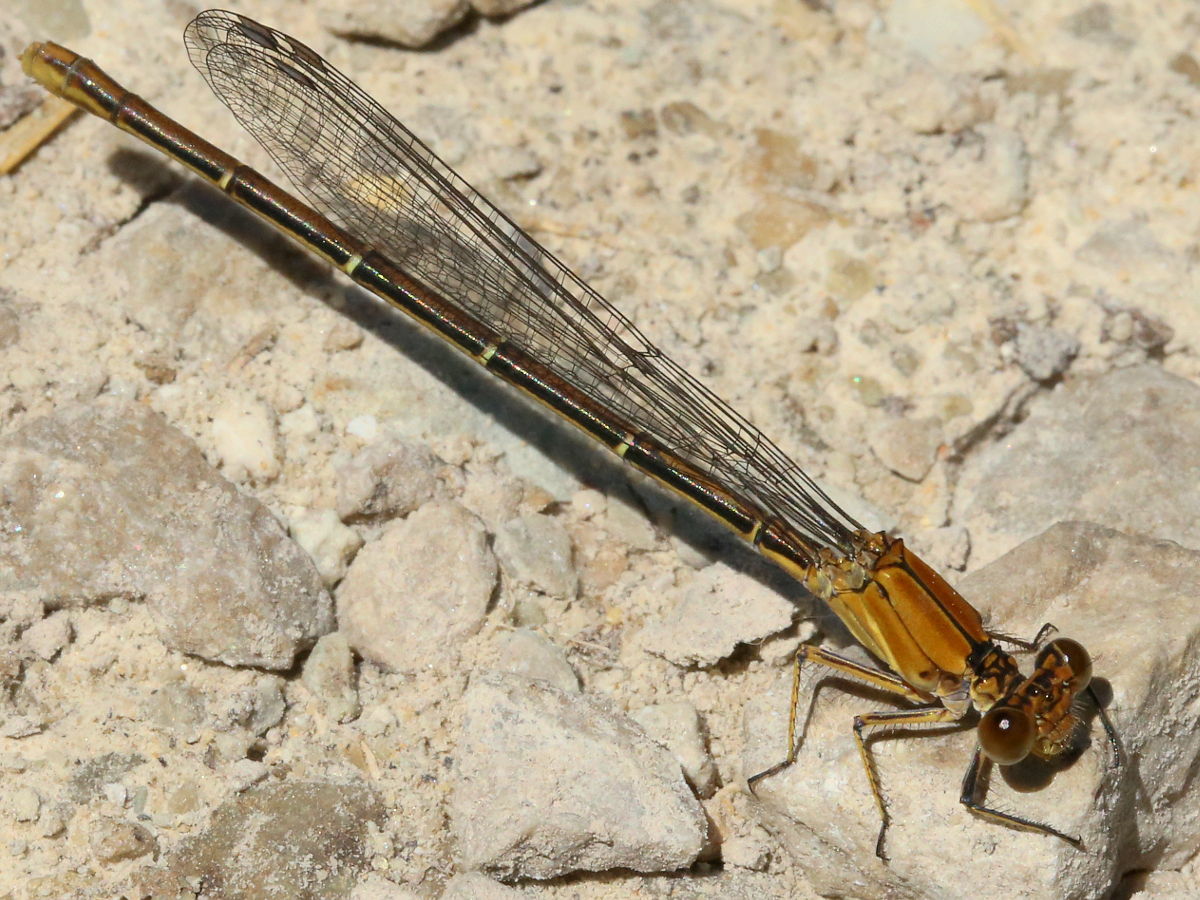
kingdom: Animalia
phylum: Arthropoda
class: Insecta
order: Odonata
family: Coenagrionidae
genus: Argia
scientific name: Argia moesta
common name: Powdered dancer
